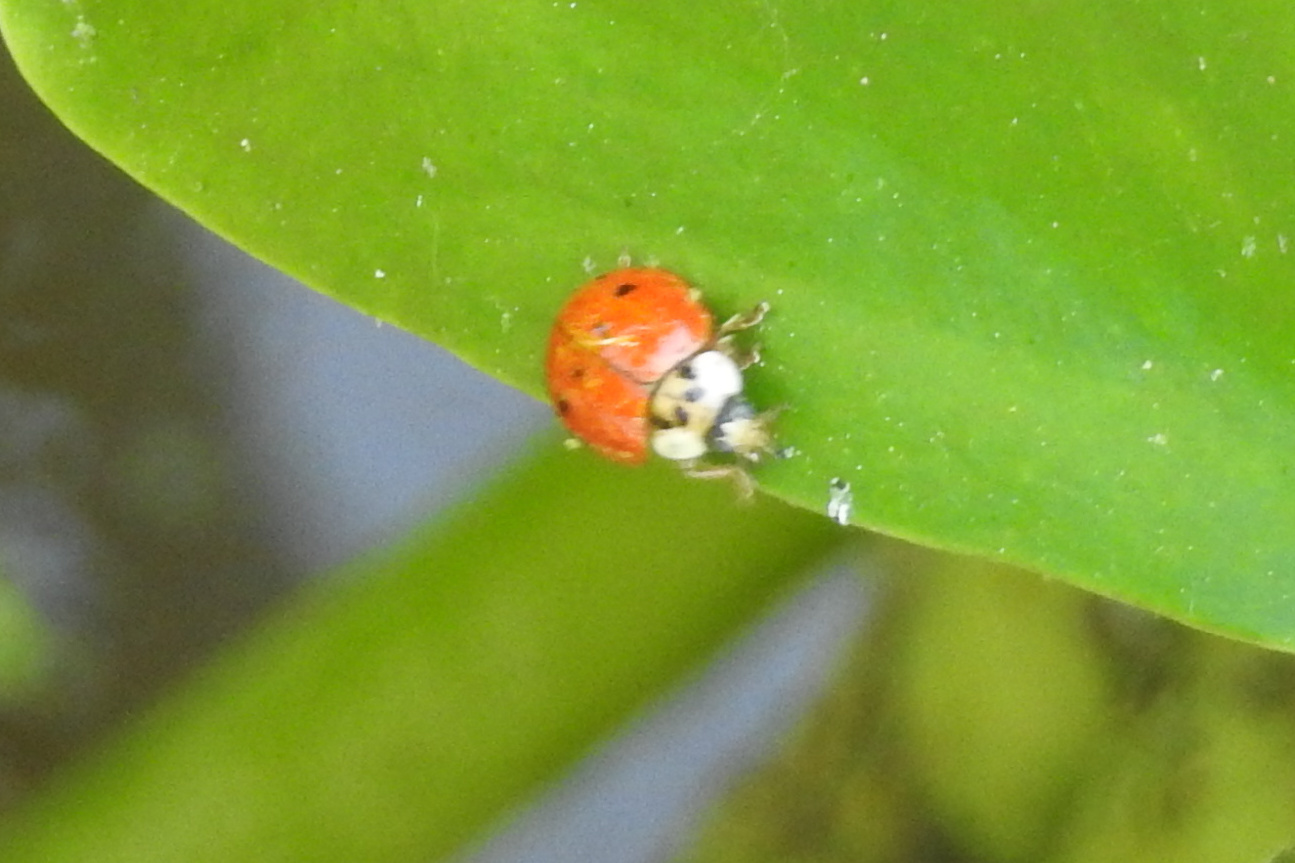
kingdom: Animalia
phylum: Arthropoda
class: Insecta
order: Coleoptera
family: Coccinellidae
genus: Harmonia
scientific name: Harmonia axyridis
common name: Harlequin ladybird
